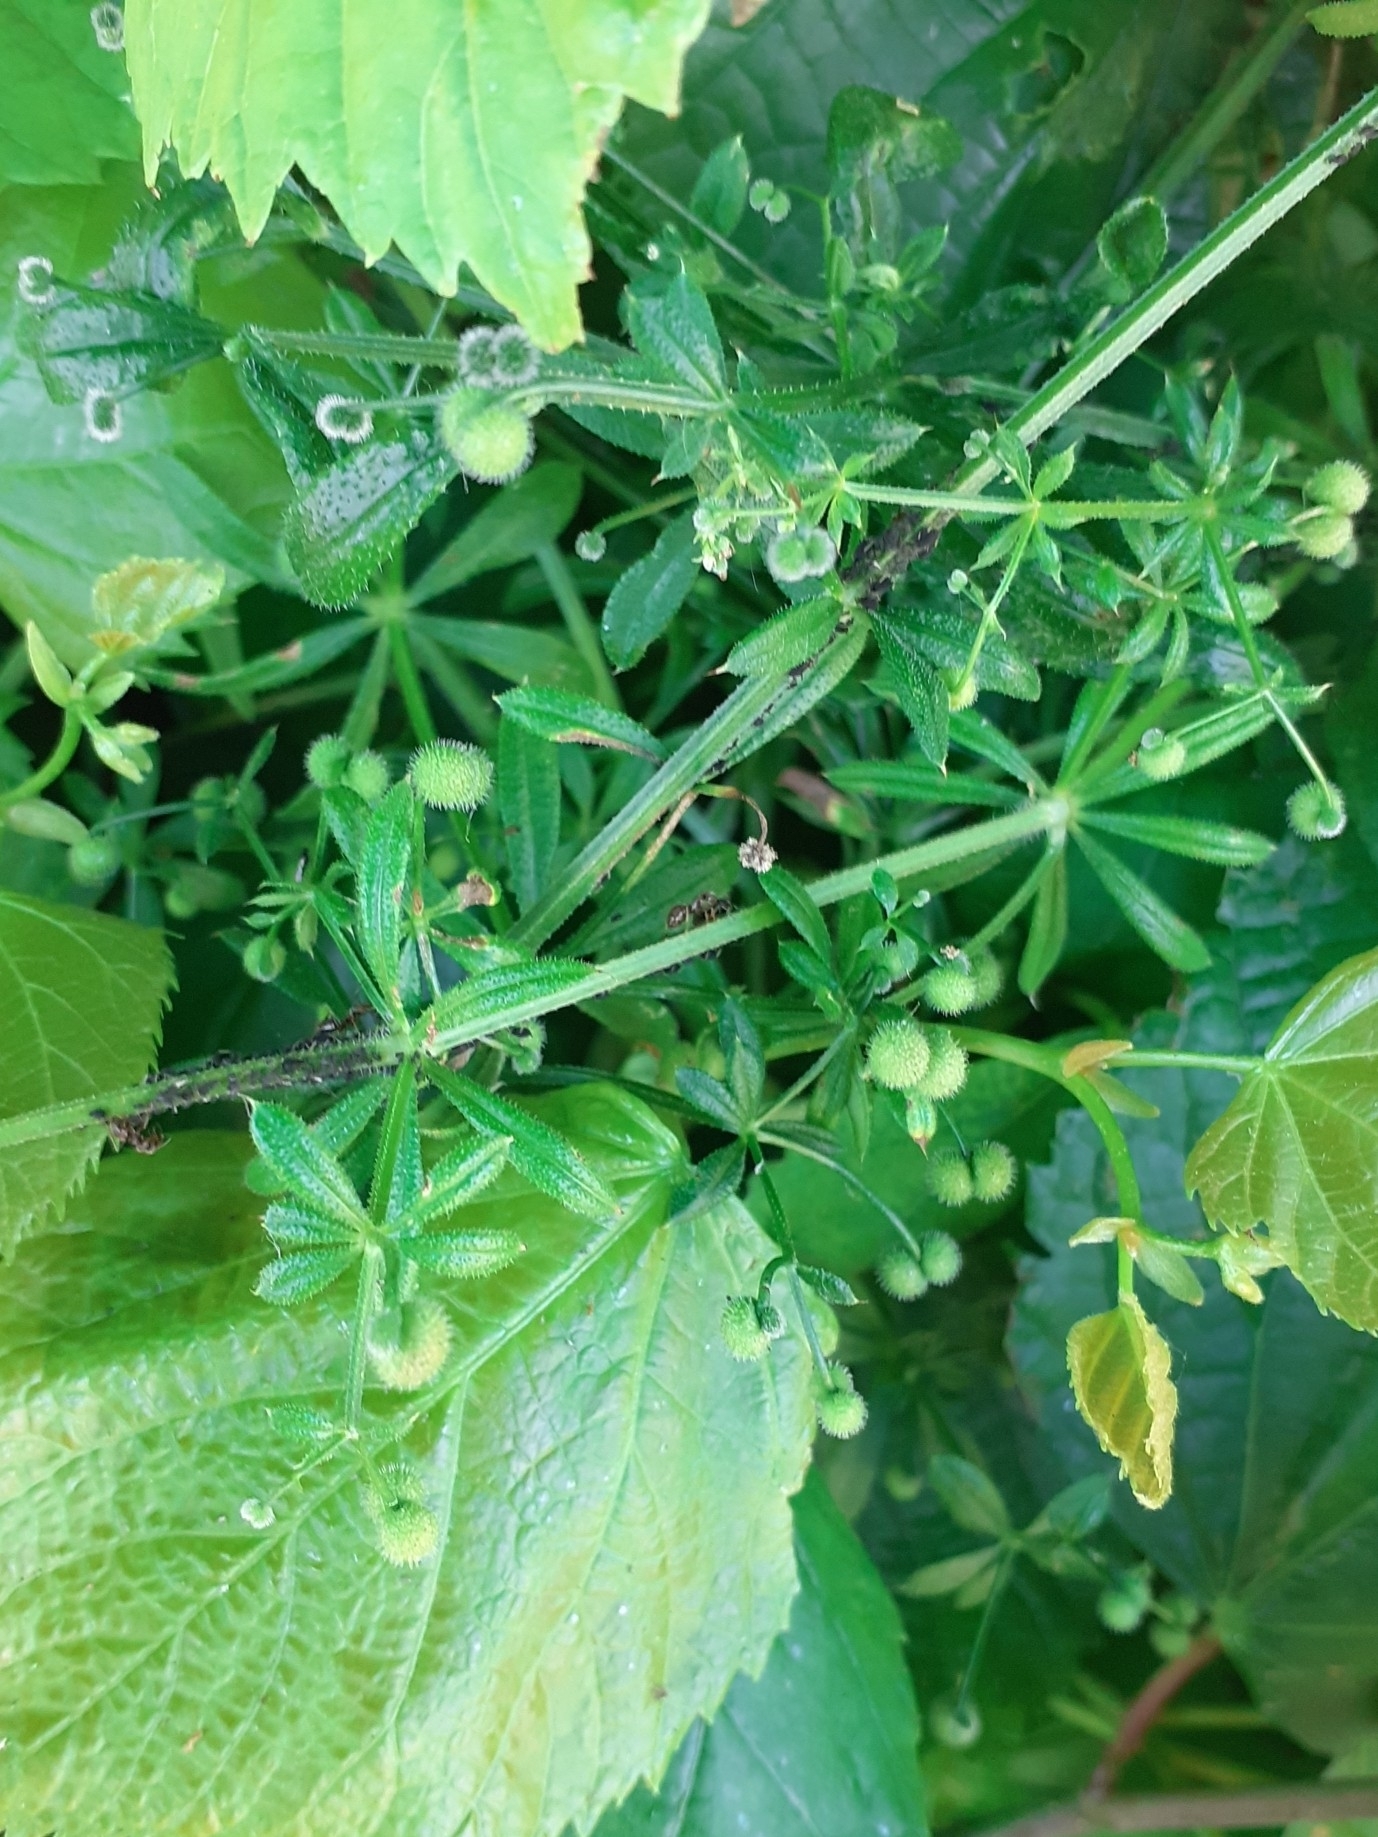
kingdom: Plantae
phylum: Tracheophyta
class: Magnoliopsida
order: Gentianales
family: Rubiaceae
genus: Galium
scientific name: Galium aparine
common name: Cleavers
